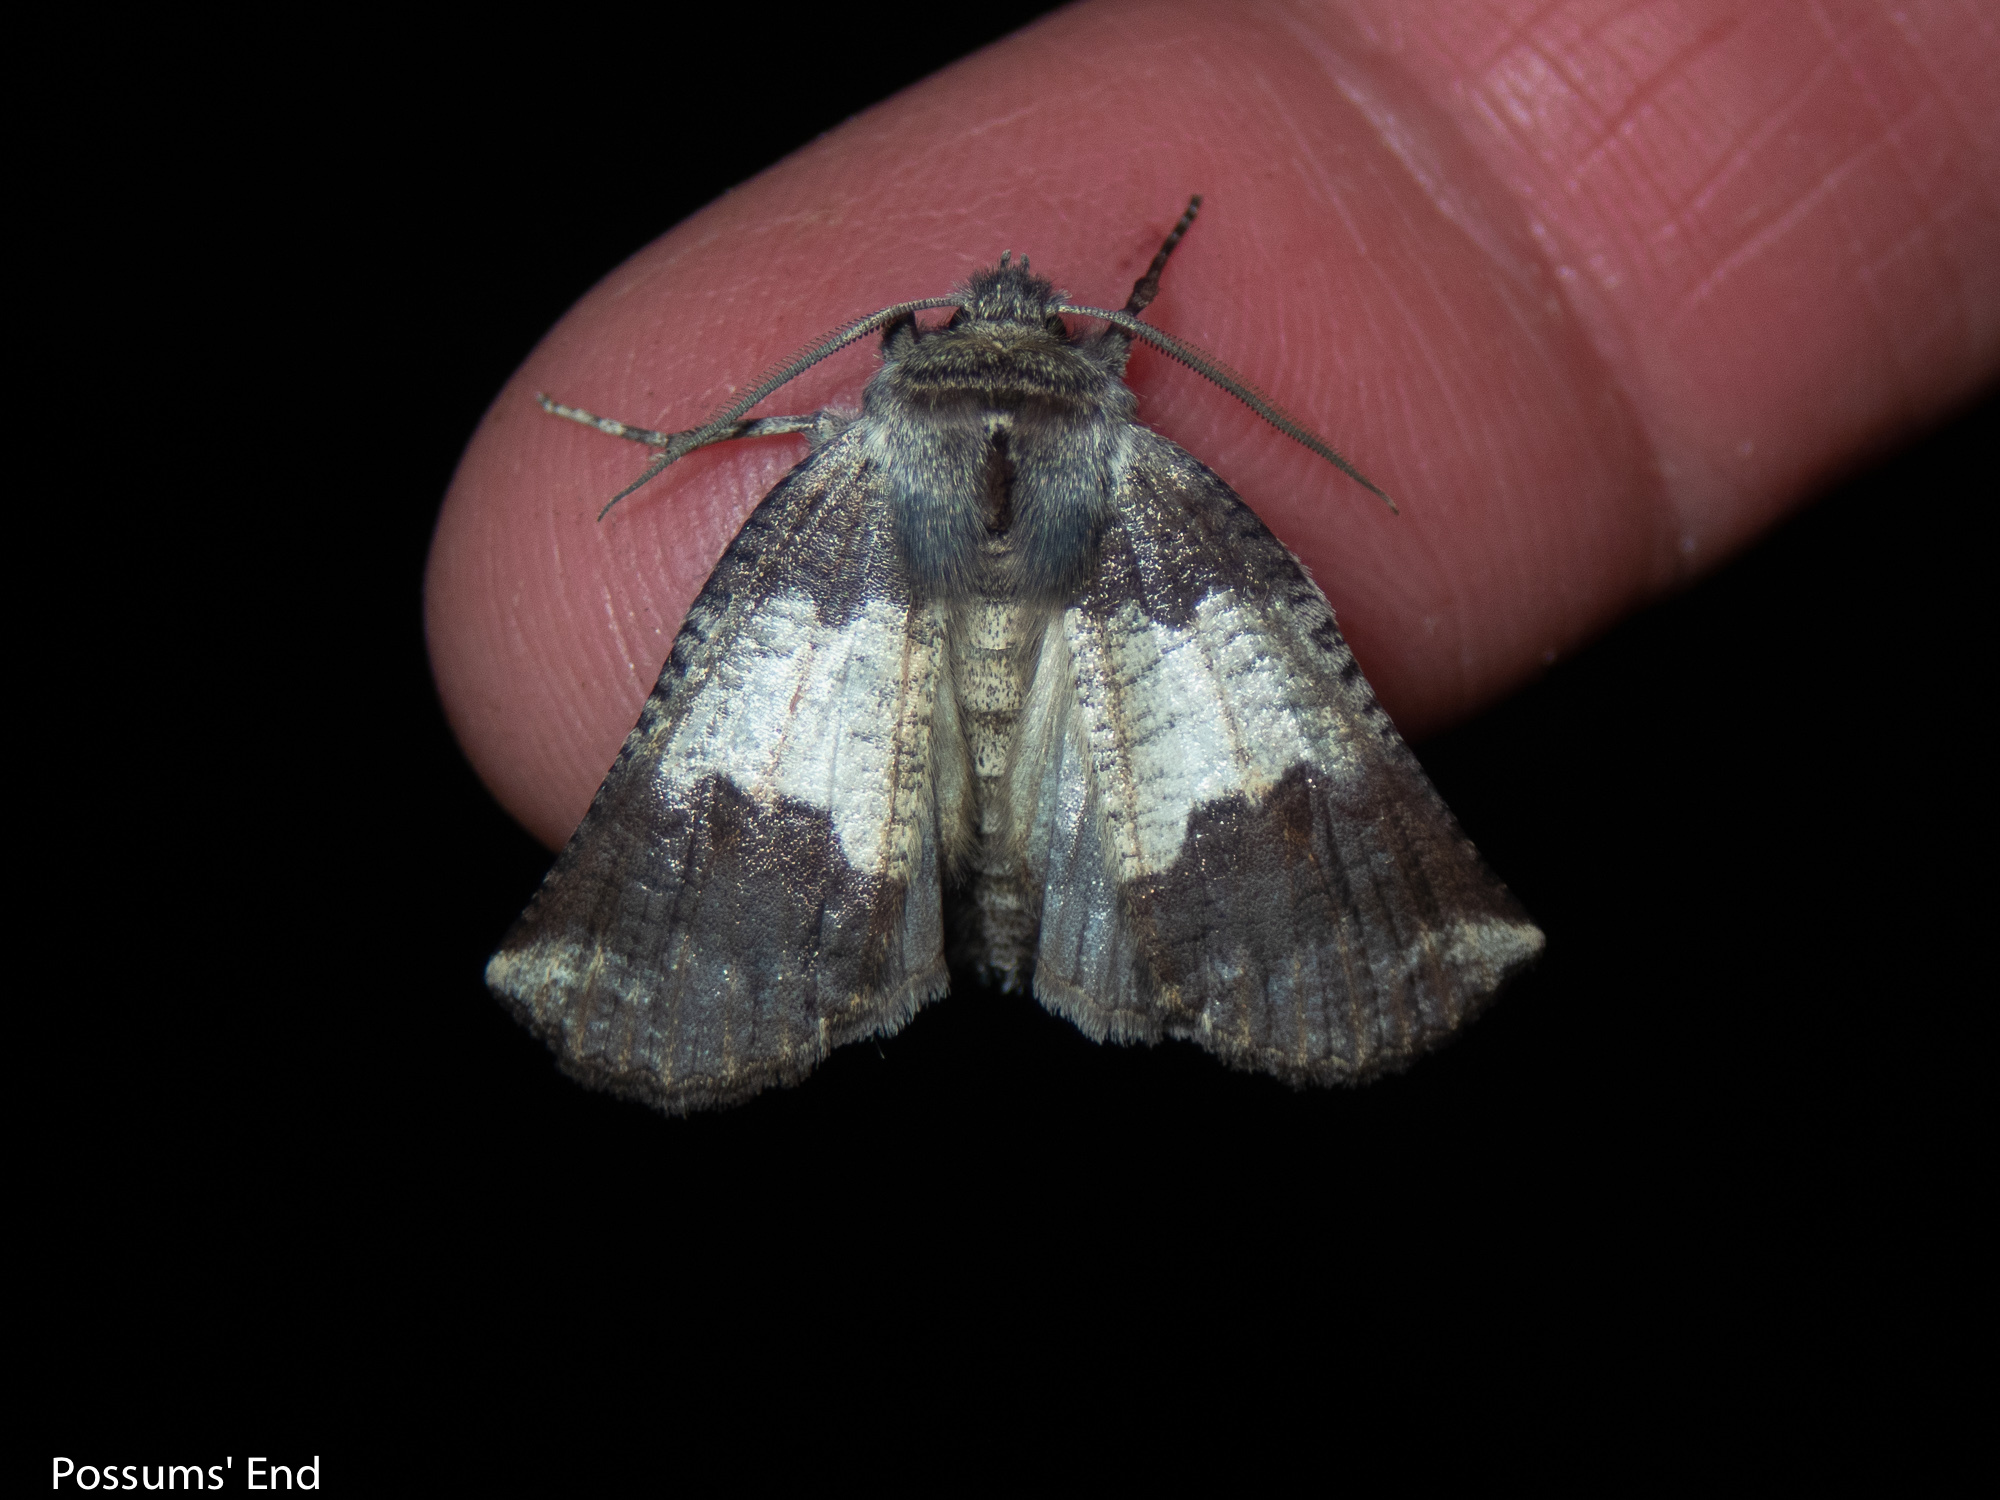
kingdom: Animalia
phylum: Arthropoda
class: Insecta
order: Lepidoptera
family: Geometridae
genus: Declana
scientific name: Declana
